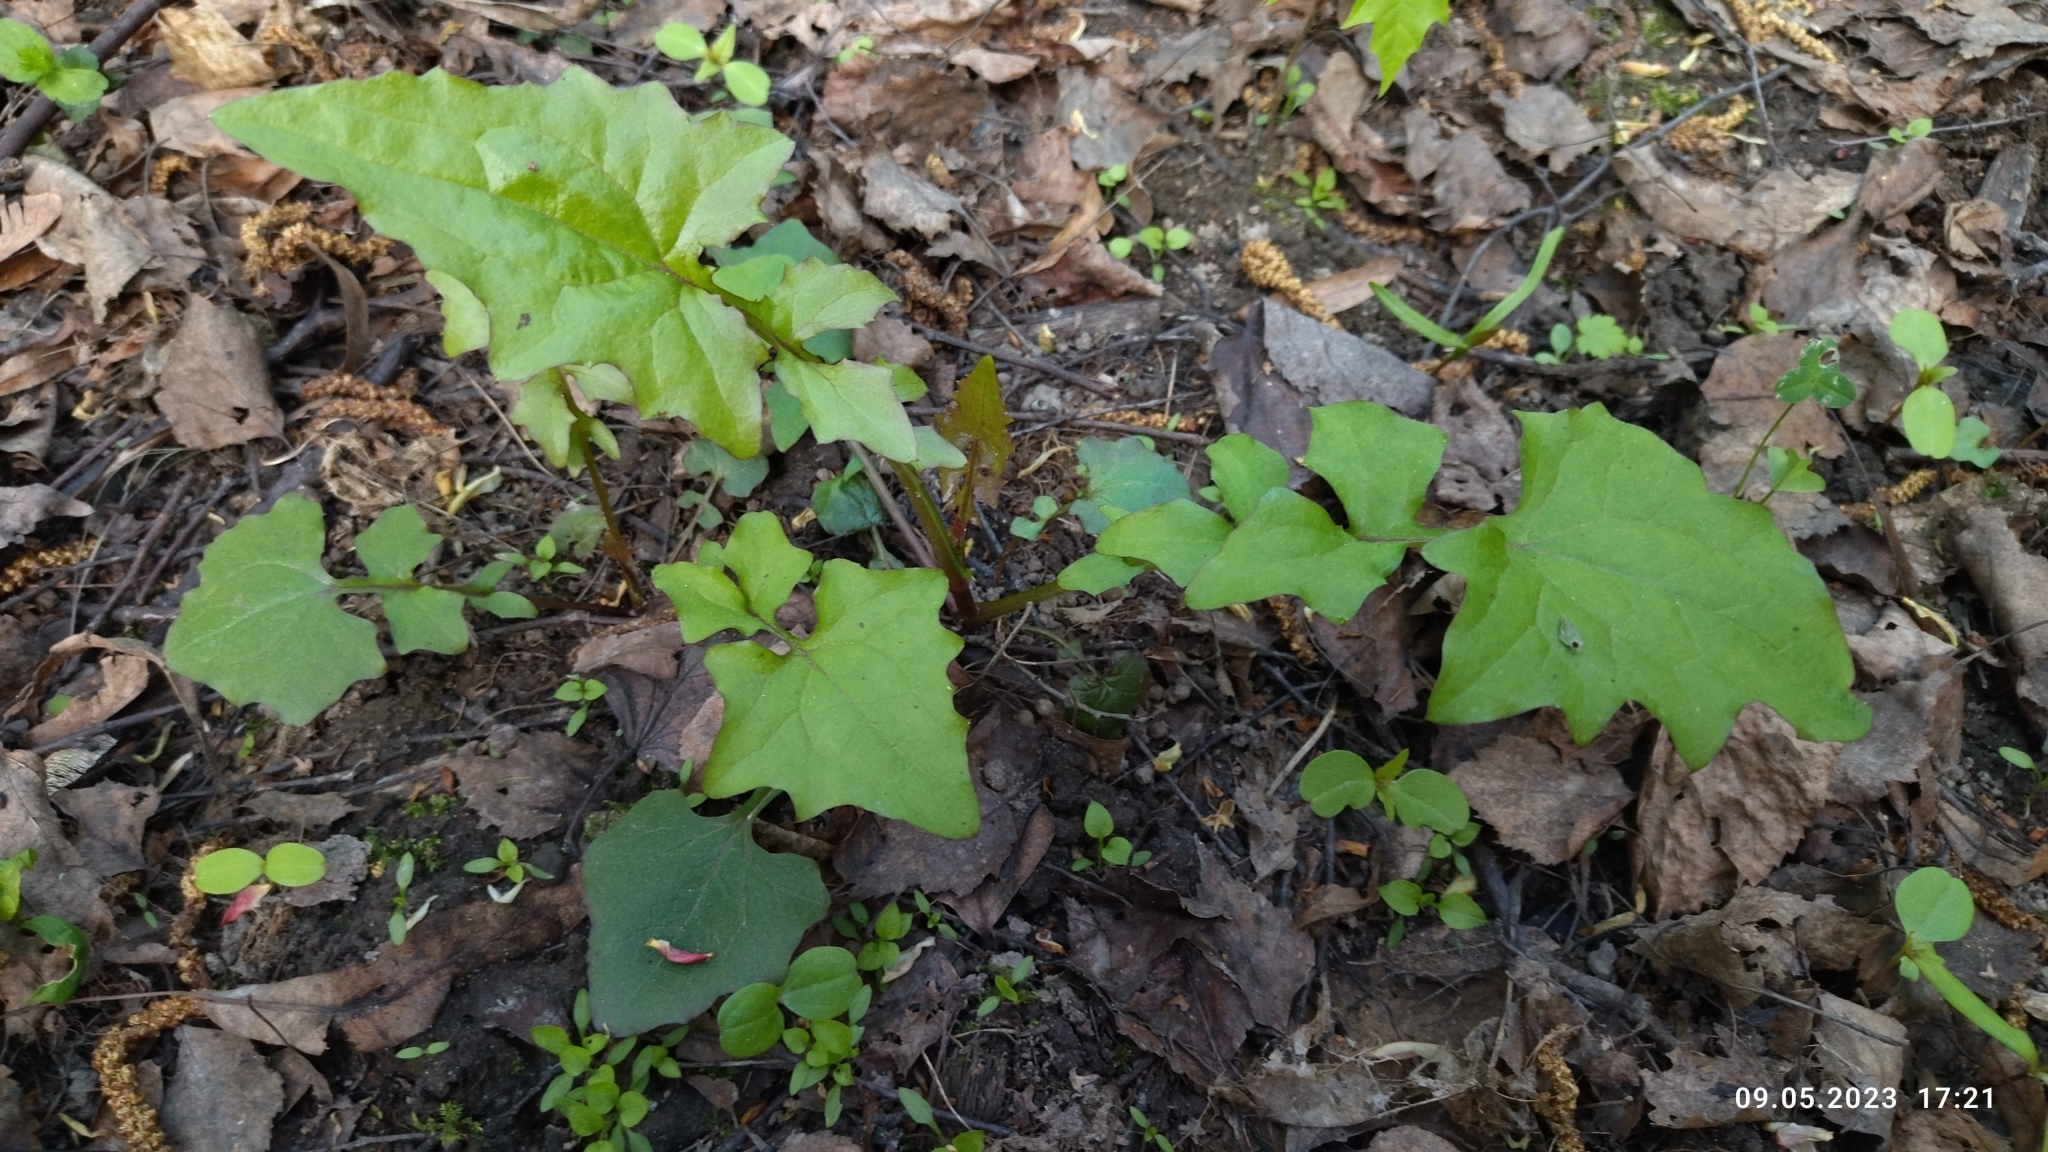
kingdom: Plantae
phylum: Tracheophyta
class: Magnoliopsida
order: Asterales
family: Asteraceae
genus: Mycelis
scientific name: Mycelis muralis
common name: Wall lettuce
